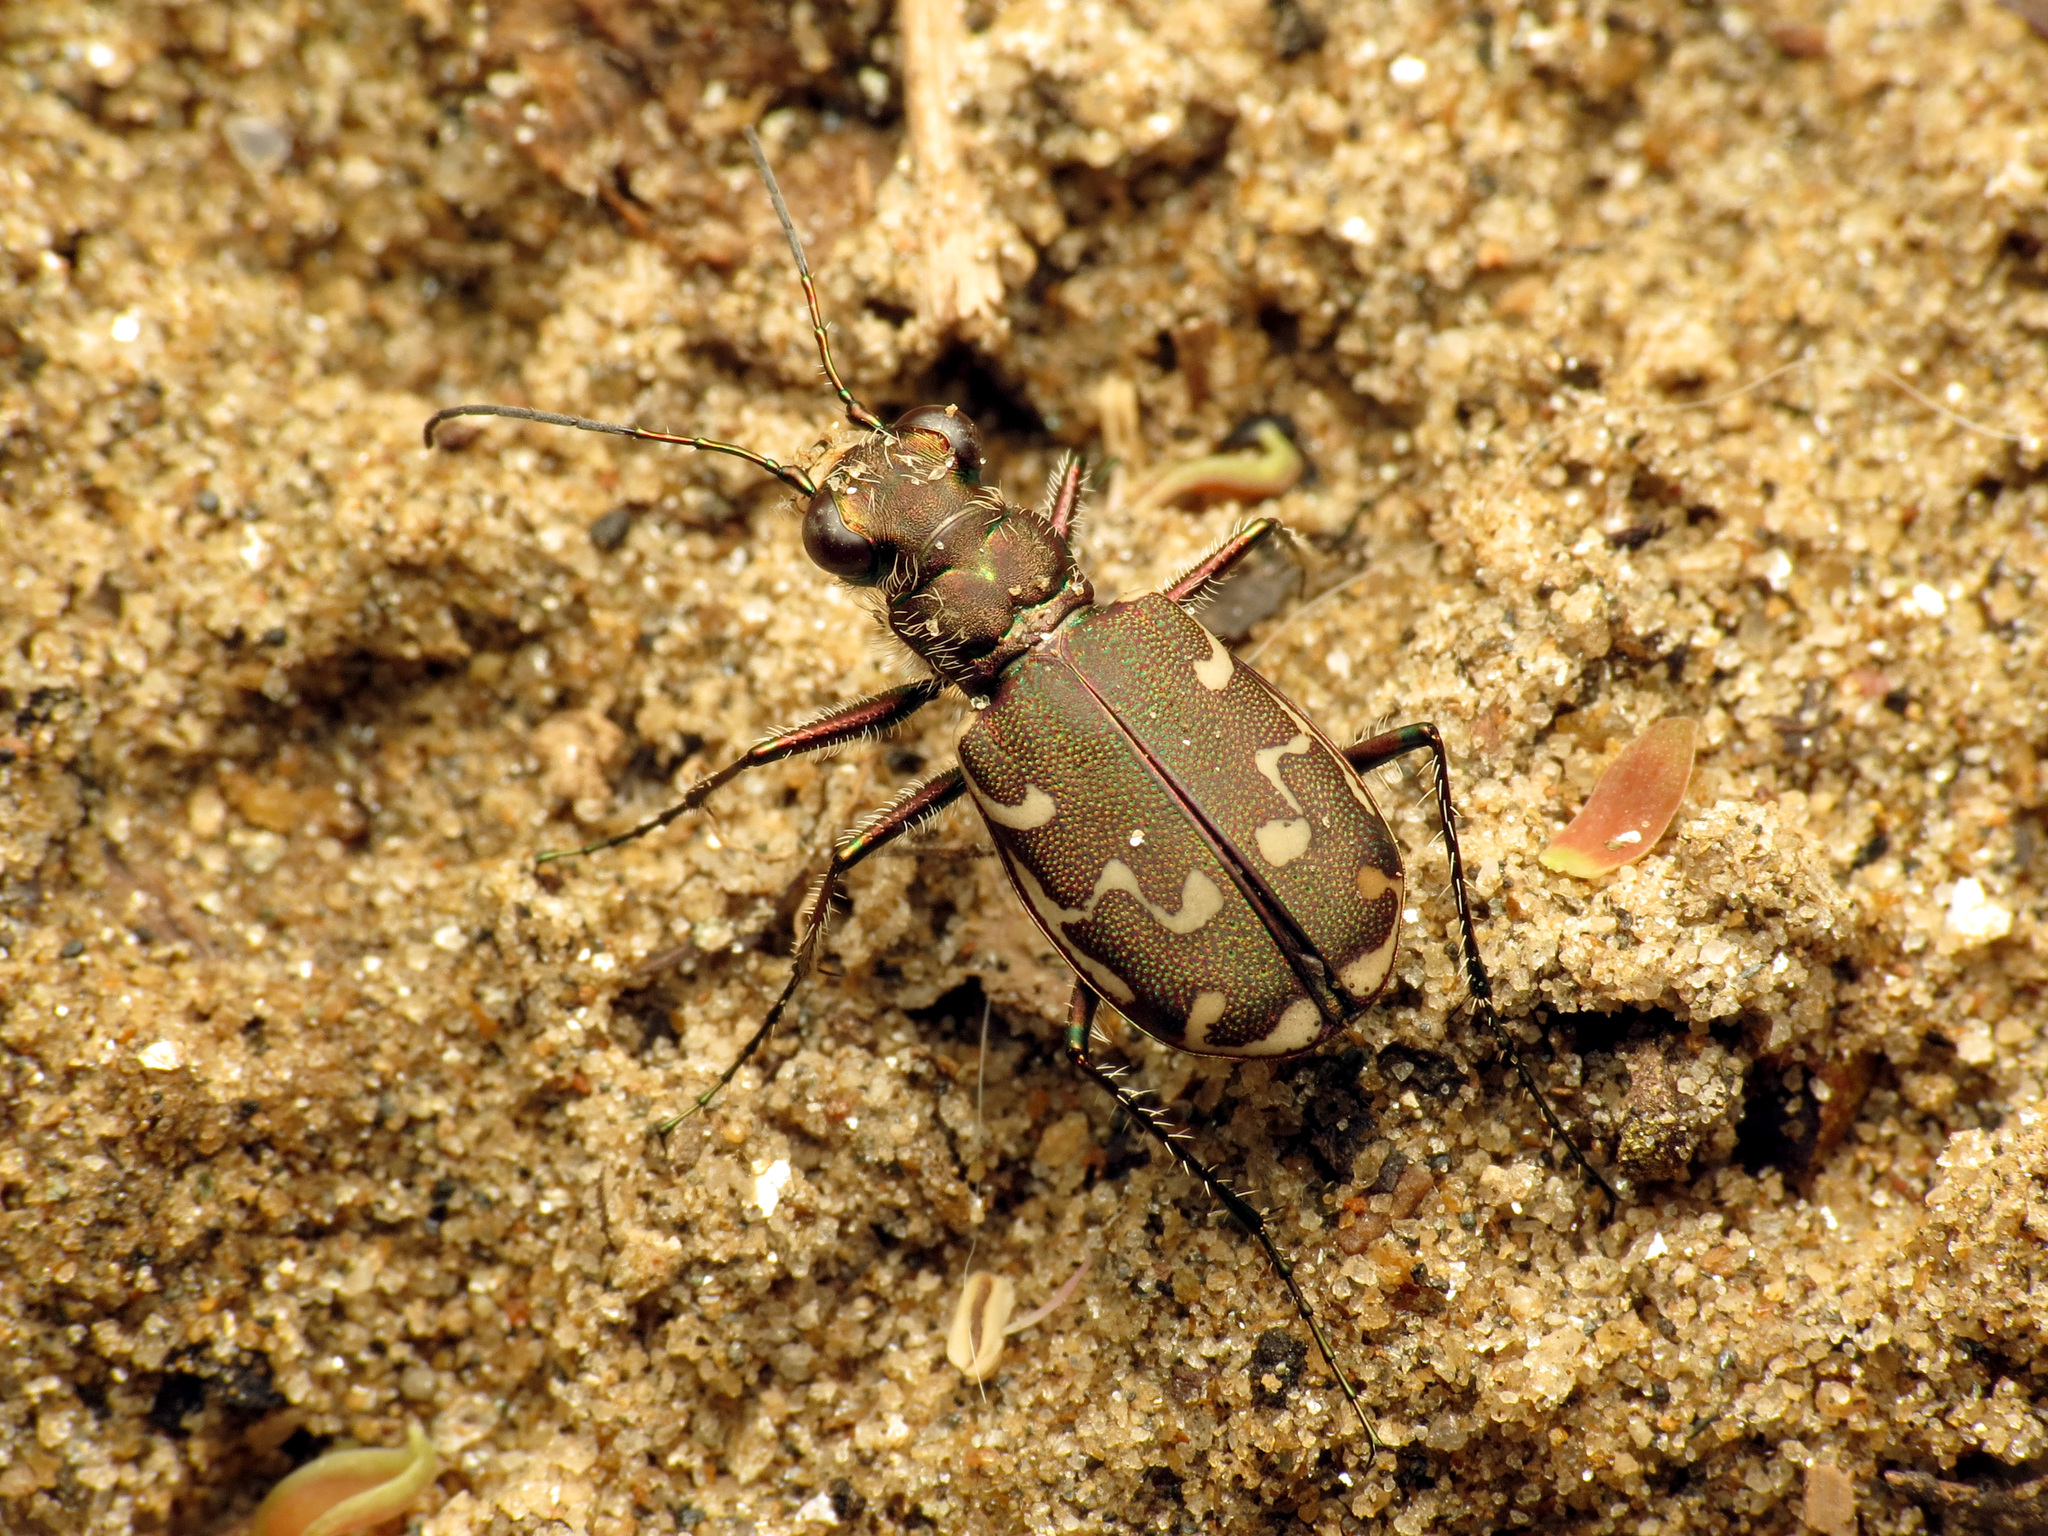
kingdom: Animalia
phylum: Arthropoda
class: Insecta
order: Coleoptera
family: Carabidae
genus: Cicindela
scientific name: Cicindela repanda
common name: Bronzed tiger beetle
